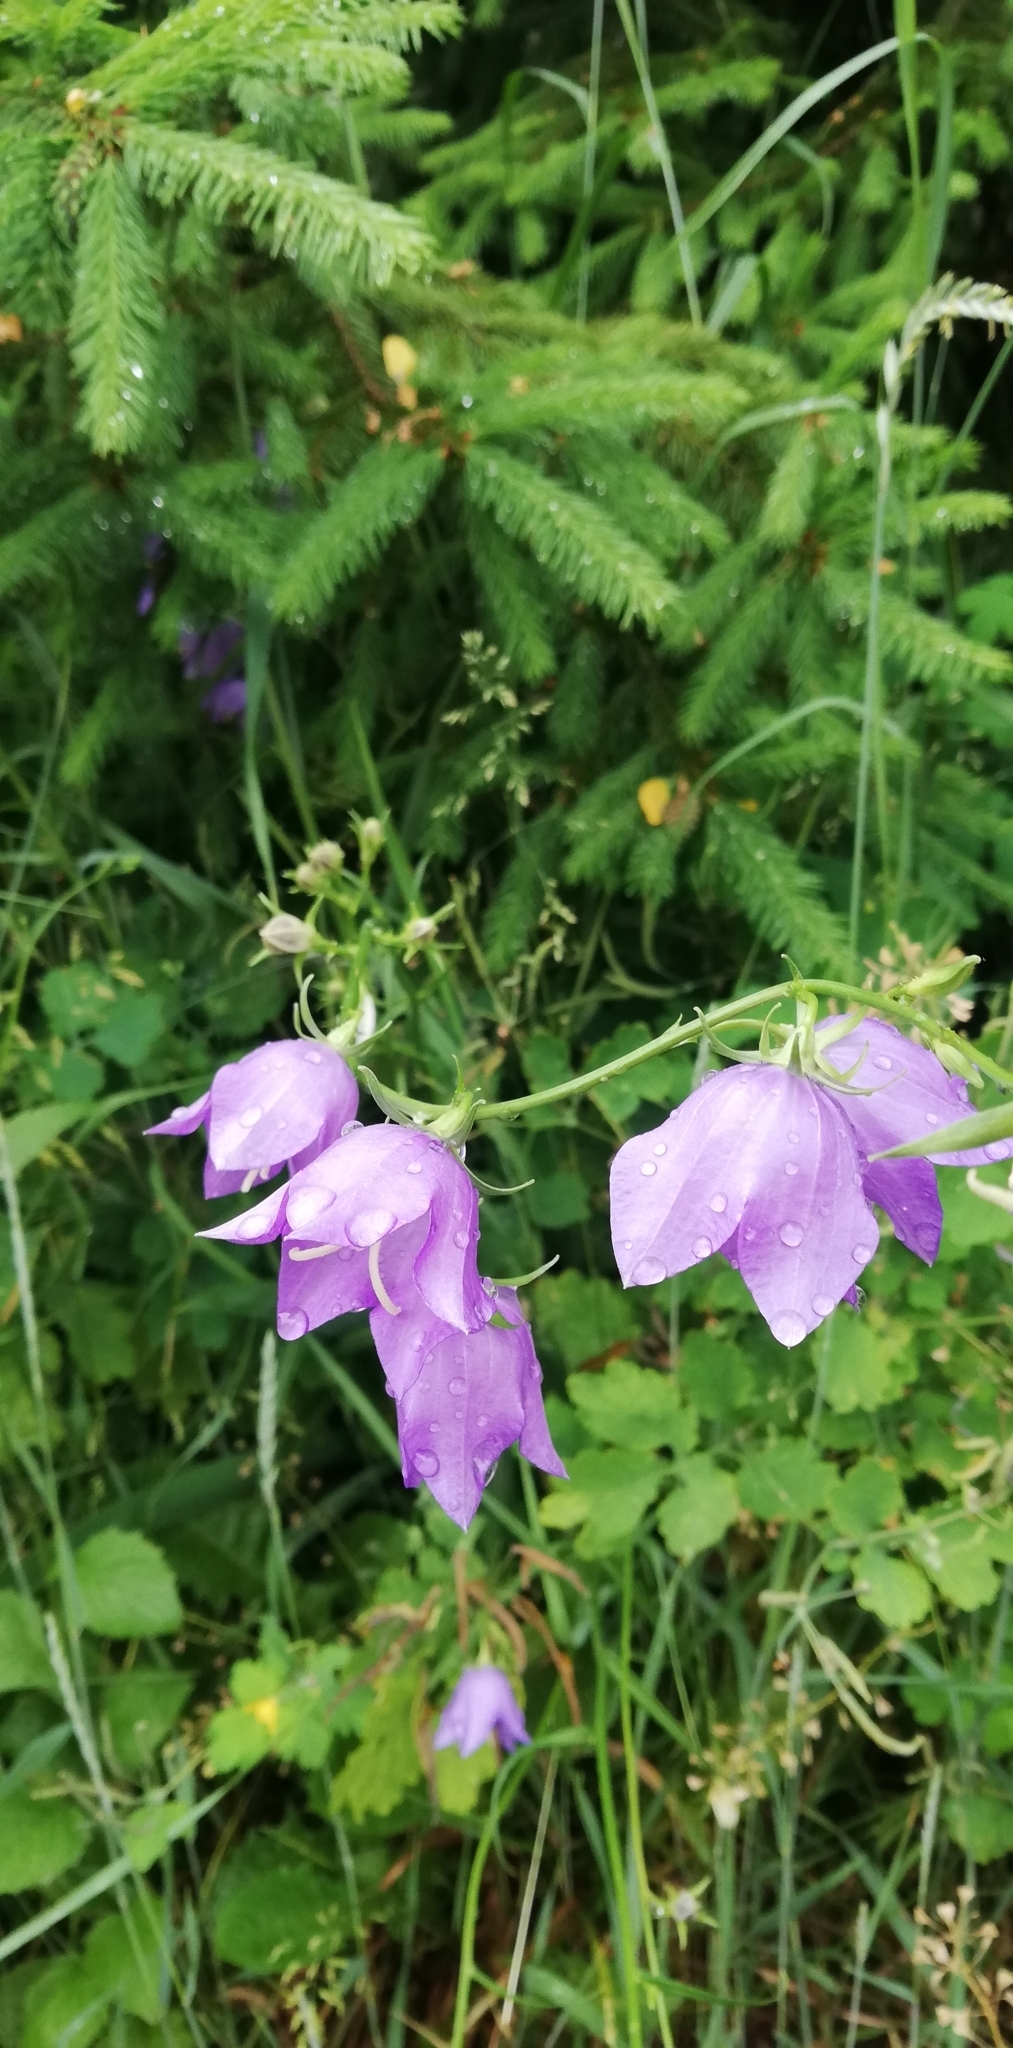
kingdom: Plantae
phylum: Tracheophyta
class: Magnoliopsida
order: Asterales
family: Campanulaceae
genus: Campanula
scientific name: Campanula persicifolia
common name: Peach-leaved bellflower
